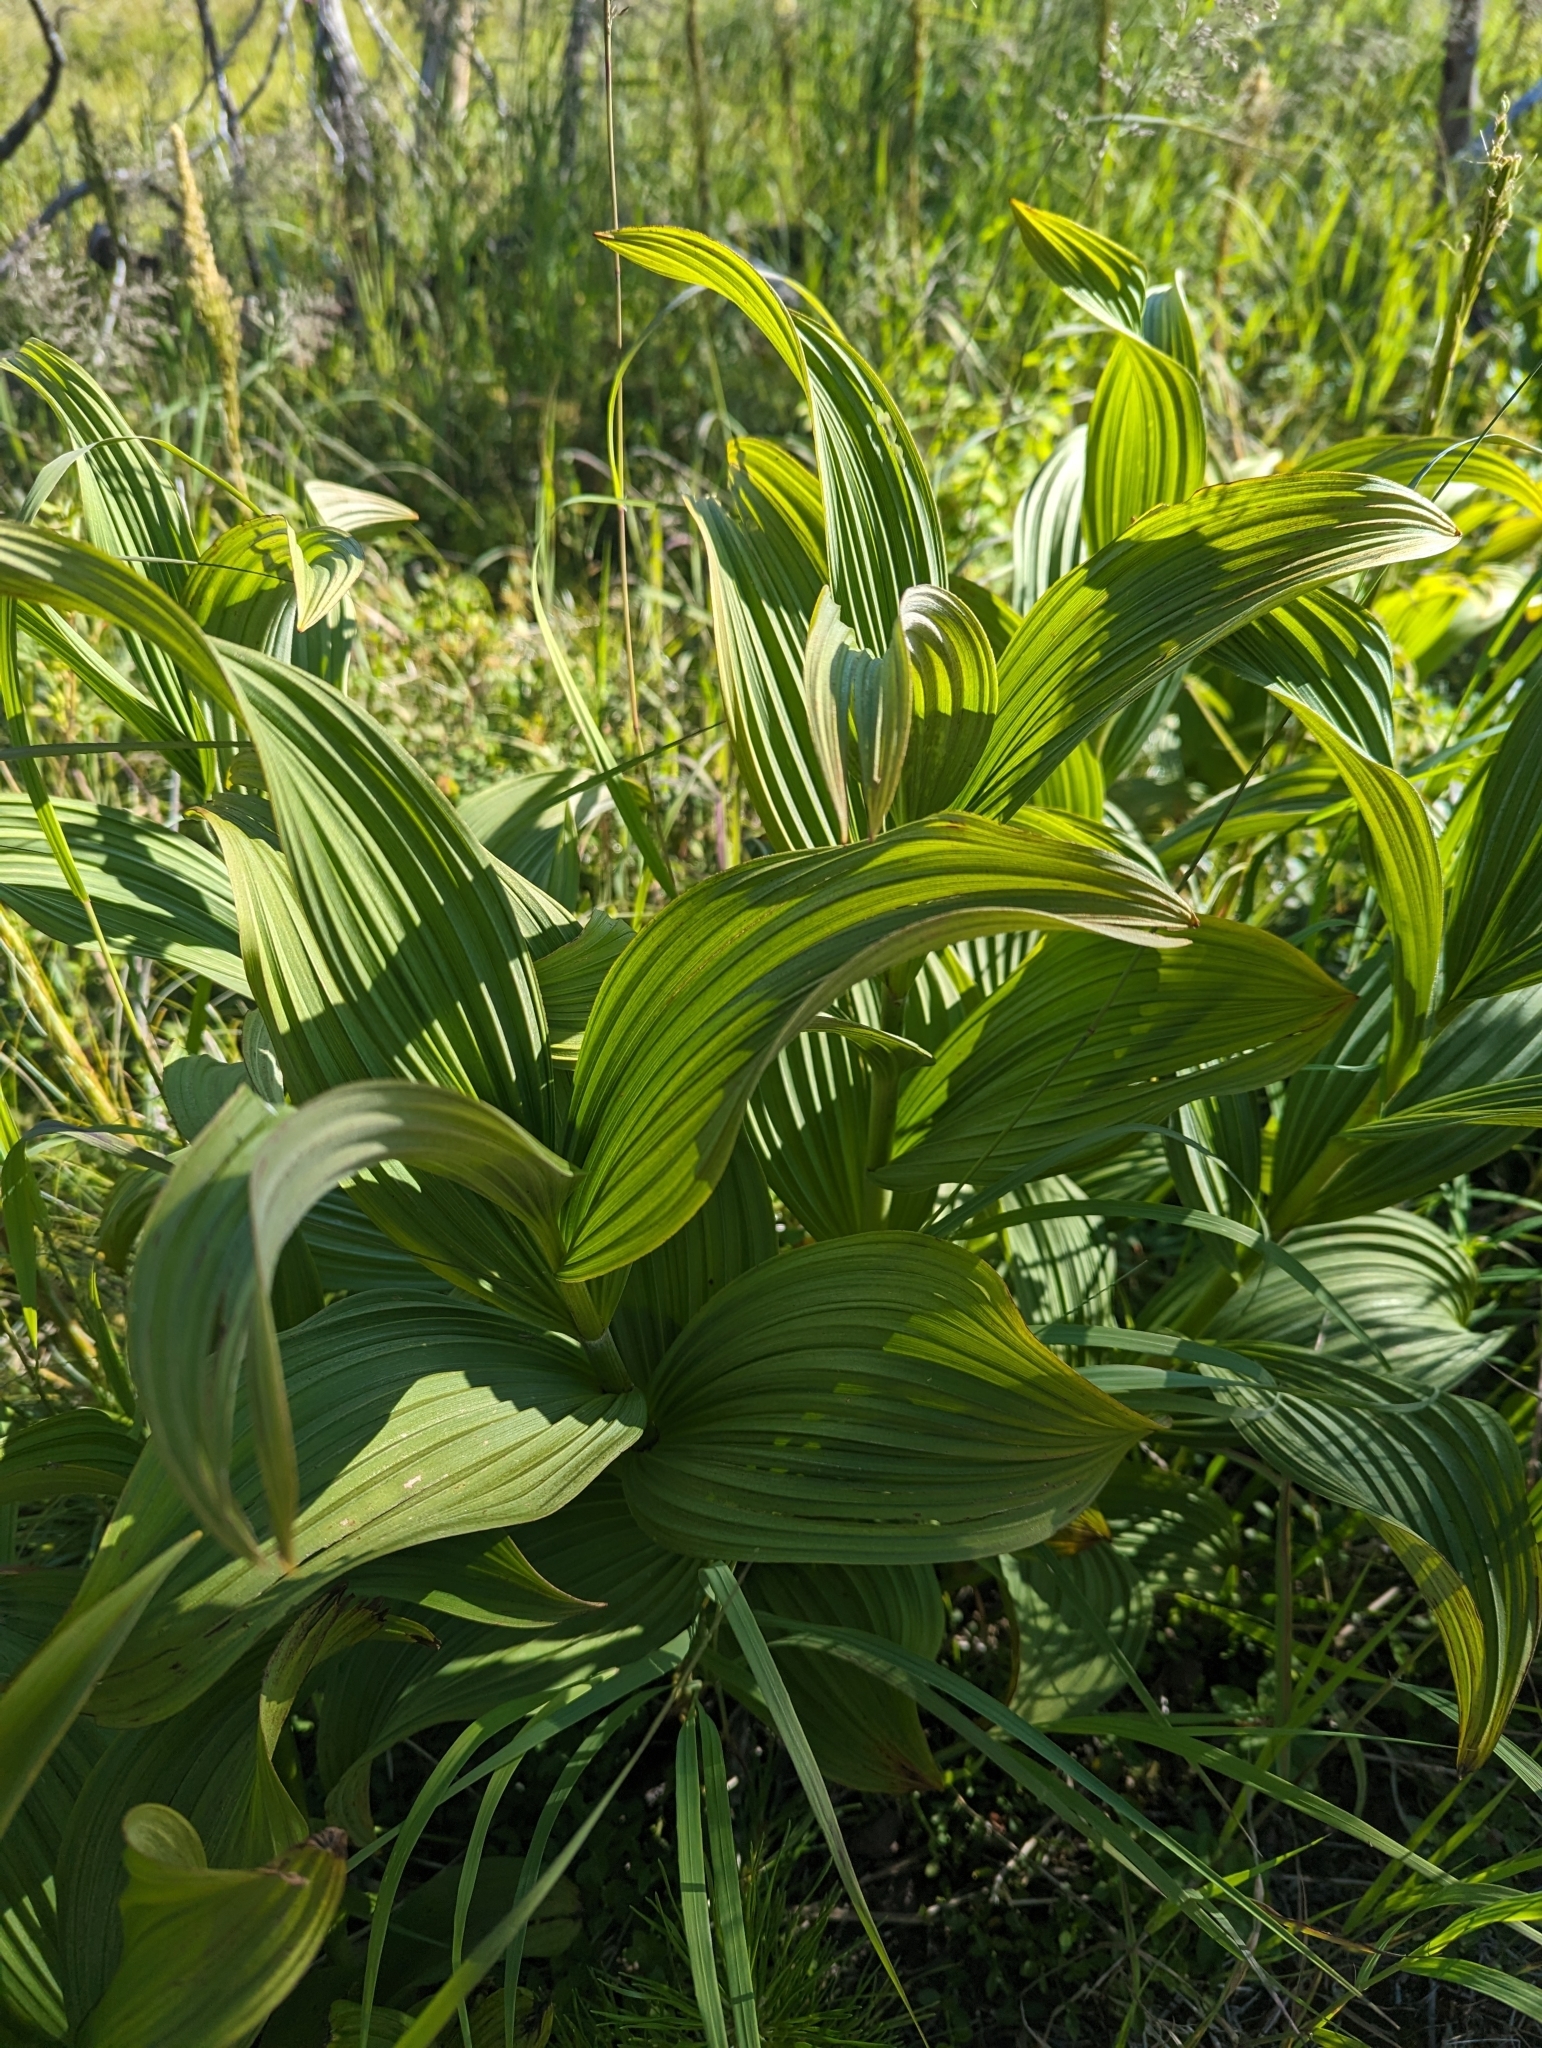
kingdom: Plantae
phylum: Tracheophyta
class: Liliopsida
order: Liliales
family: Melanthiaceae
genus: Veratrum
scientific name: Veratrum viride
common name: American false hellebore
